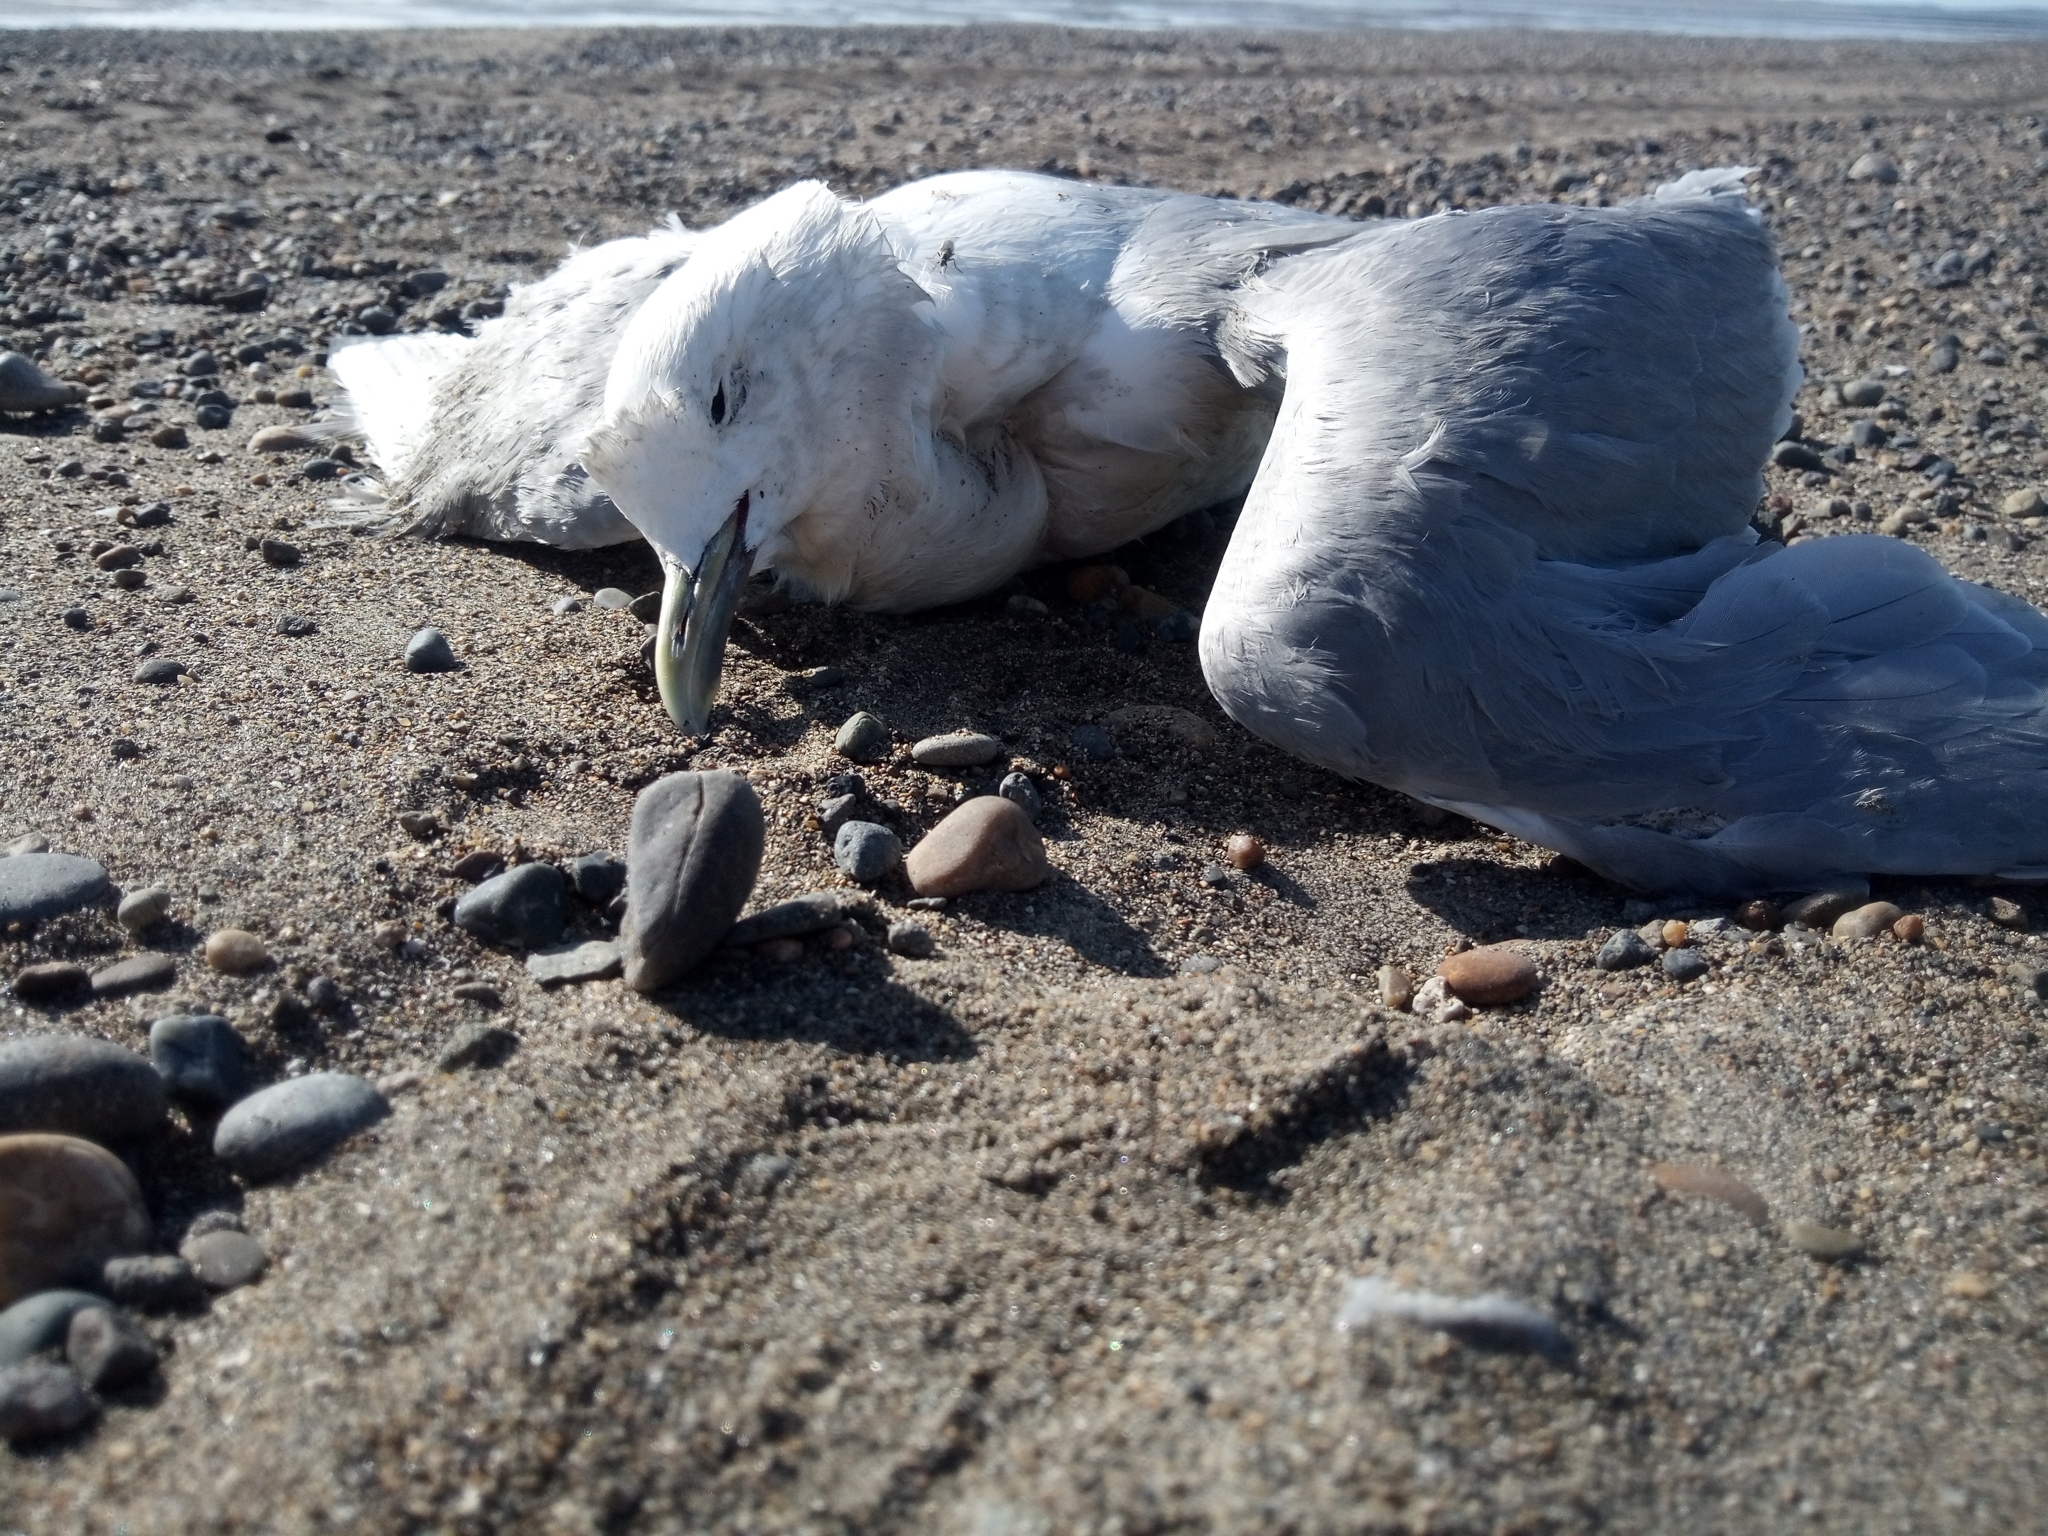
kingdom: Animalia
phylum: Chordata
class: Aves
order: Charadriiformes
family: Laridae
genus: Rissa
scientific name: Rissa tridactyla
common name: Black-legged kittiwake
